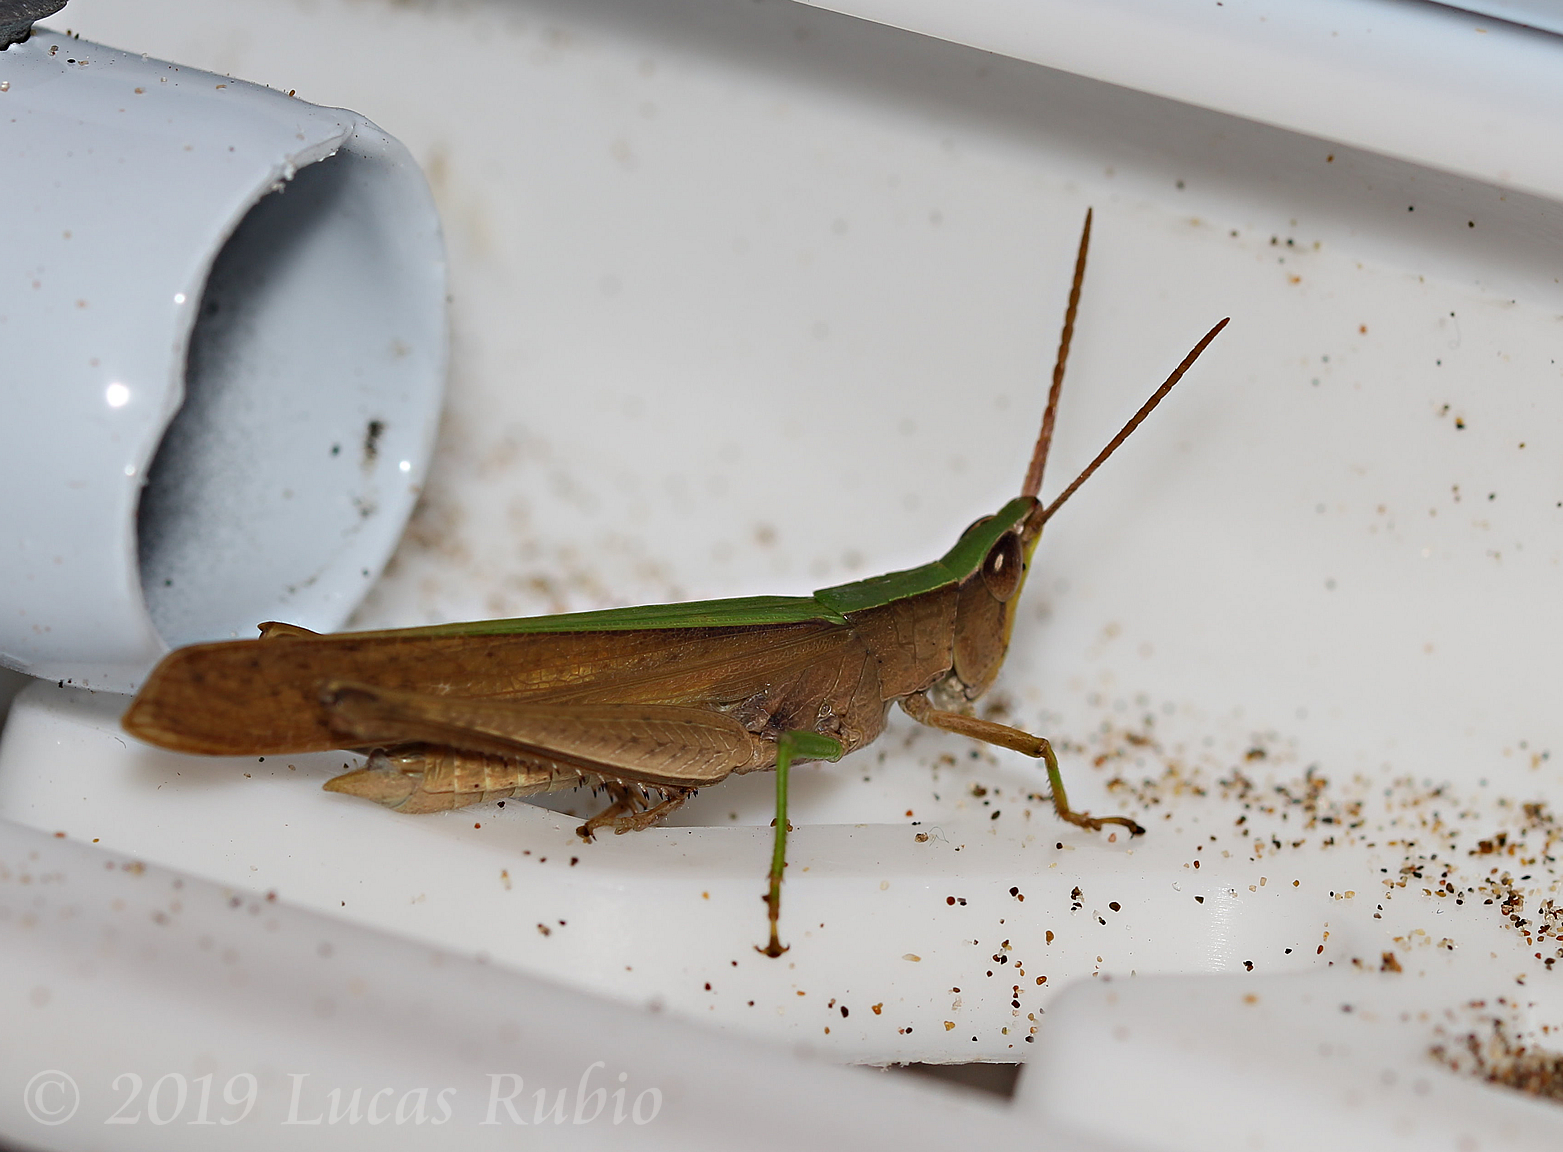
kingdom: Animalia
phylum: Arthropoda
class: Insecta
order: Orthoptera
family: Acrididae
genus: Metaleptea
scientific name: Metaleptea adspersa
